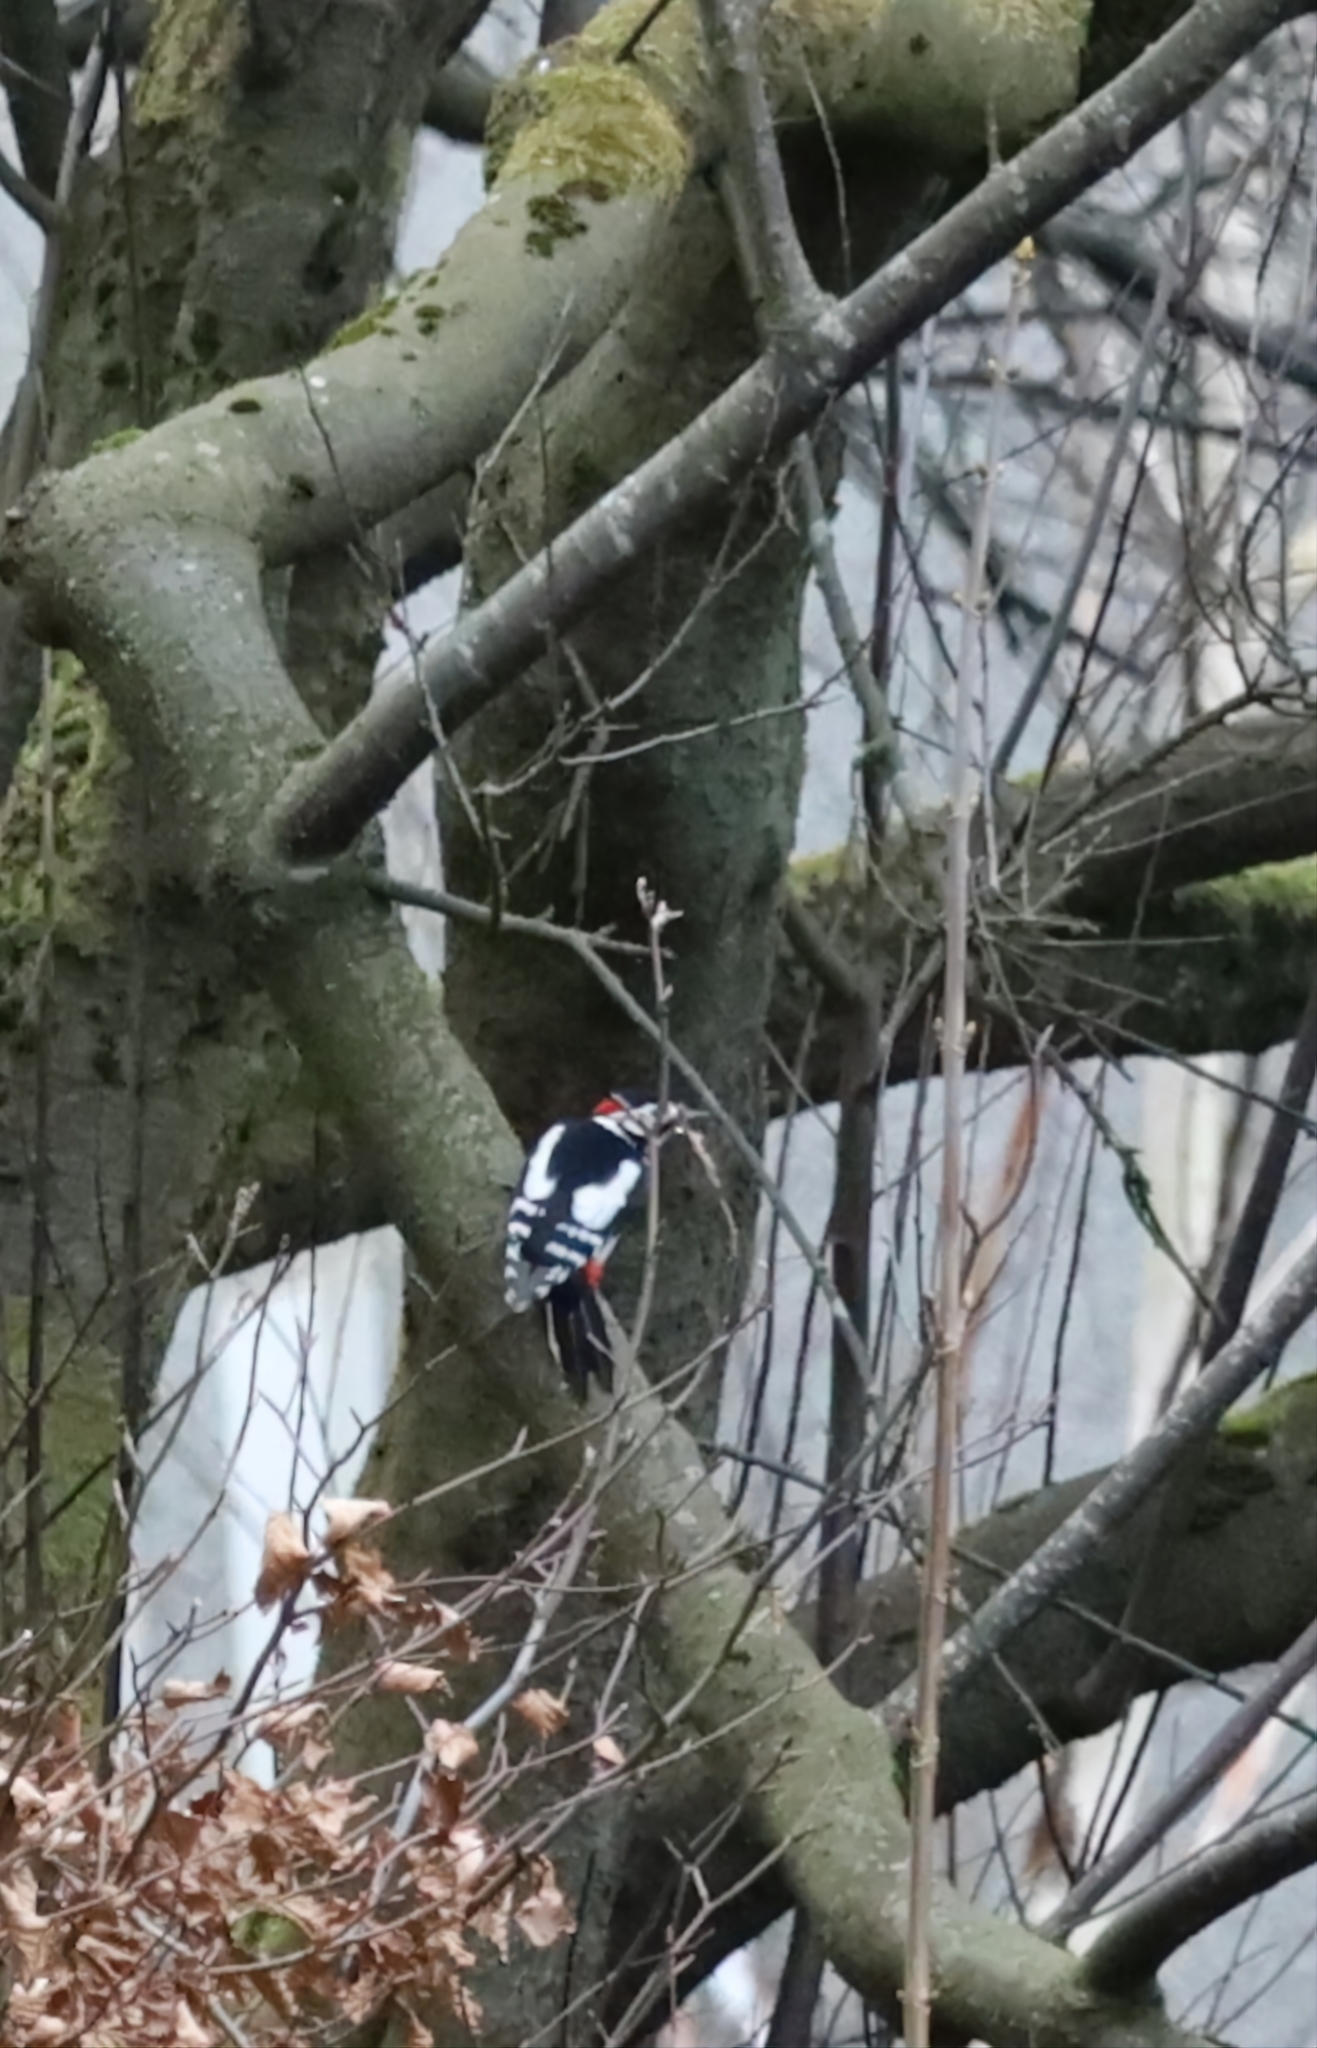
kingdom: Animalia
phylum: Chordata
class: Aves
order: Piciformes
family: Picidae
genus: Dendrocopos
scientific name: Dendrocopos major
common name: Great spotted woodpecker
